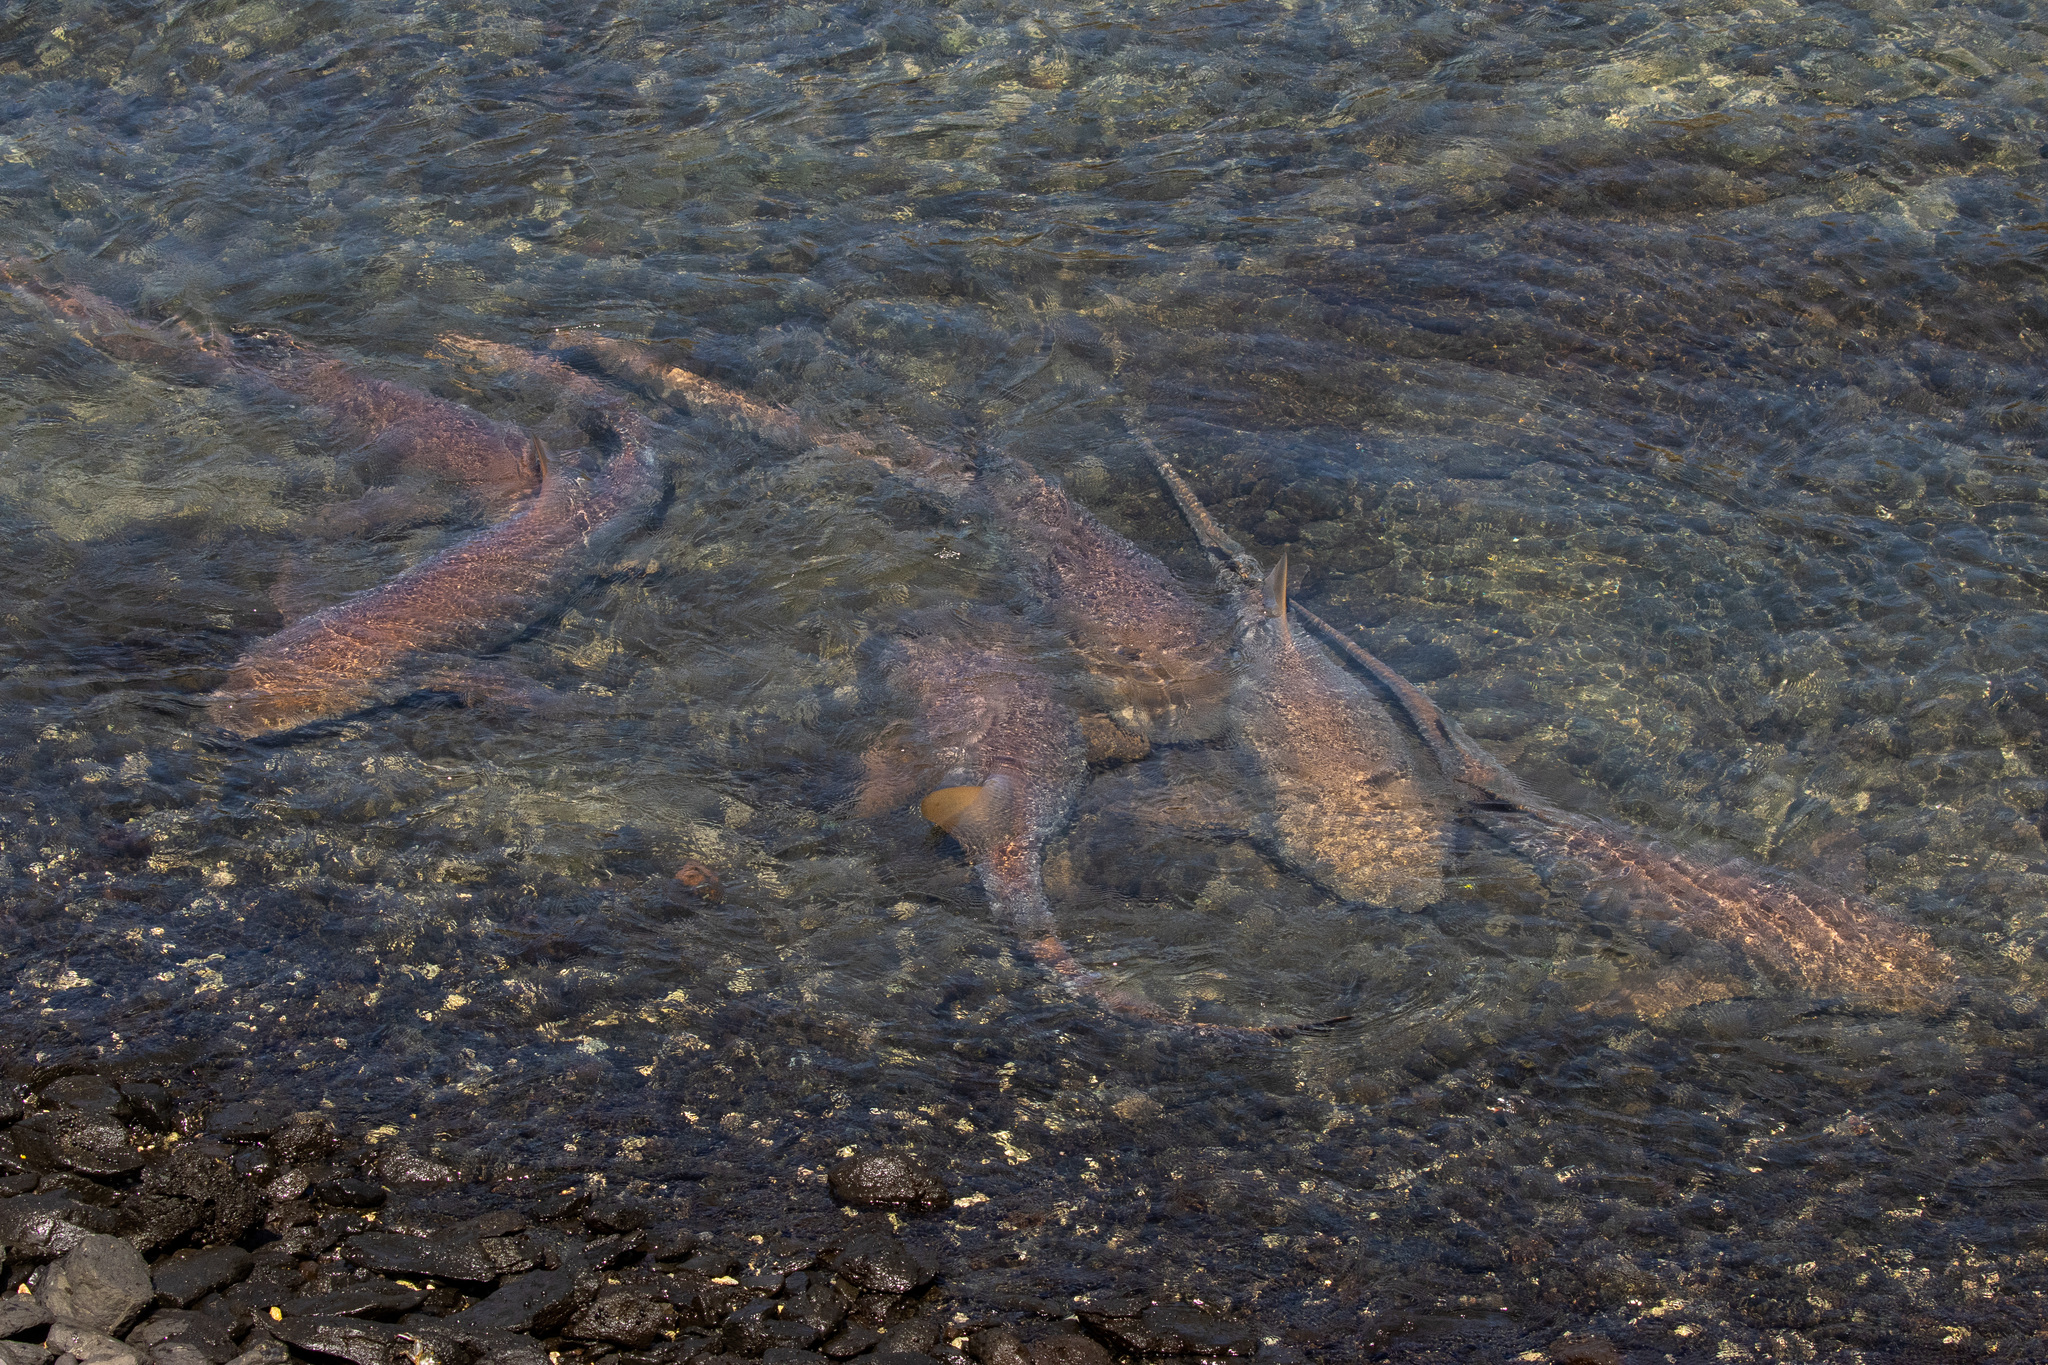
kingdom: Animalia
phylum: Chordata
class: Elasmobranchii
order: Orectolobiformes
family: Ginglymostomatidae
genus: Ginglymostoma
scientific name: Ginglymostoma cirratum
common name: Nurse shark
